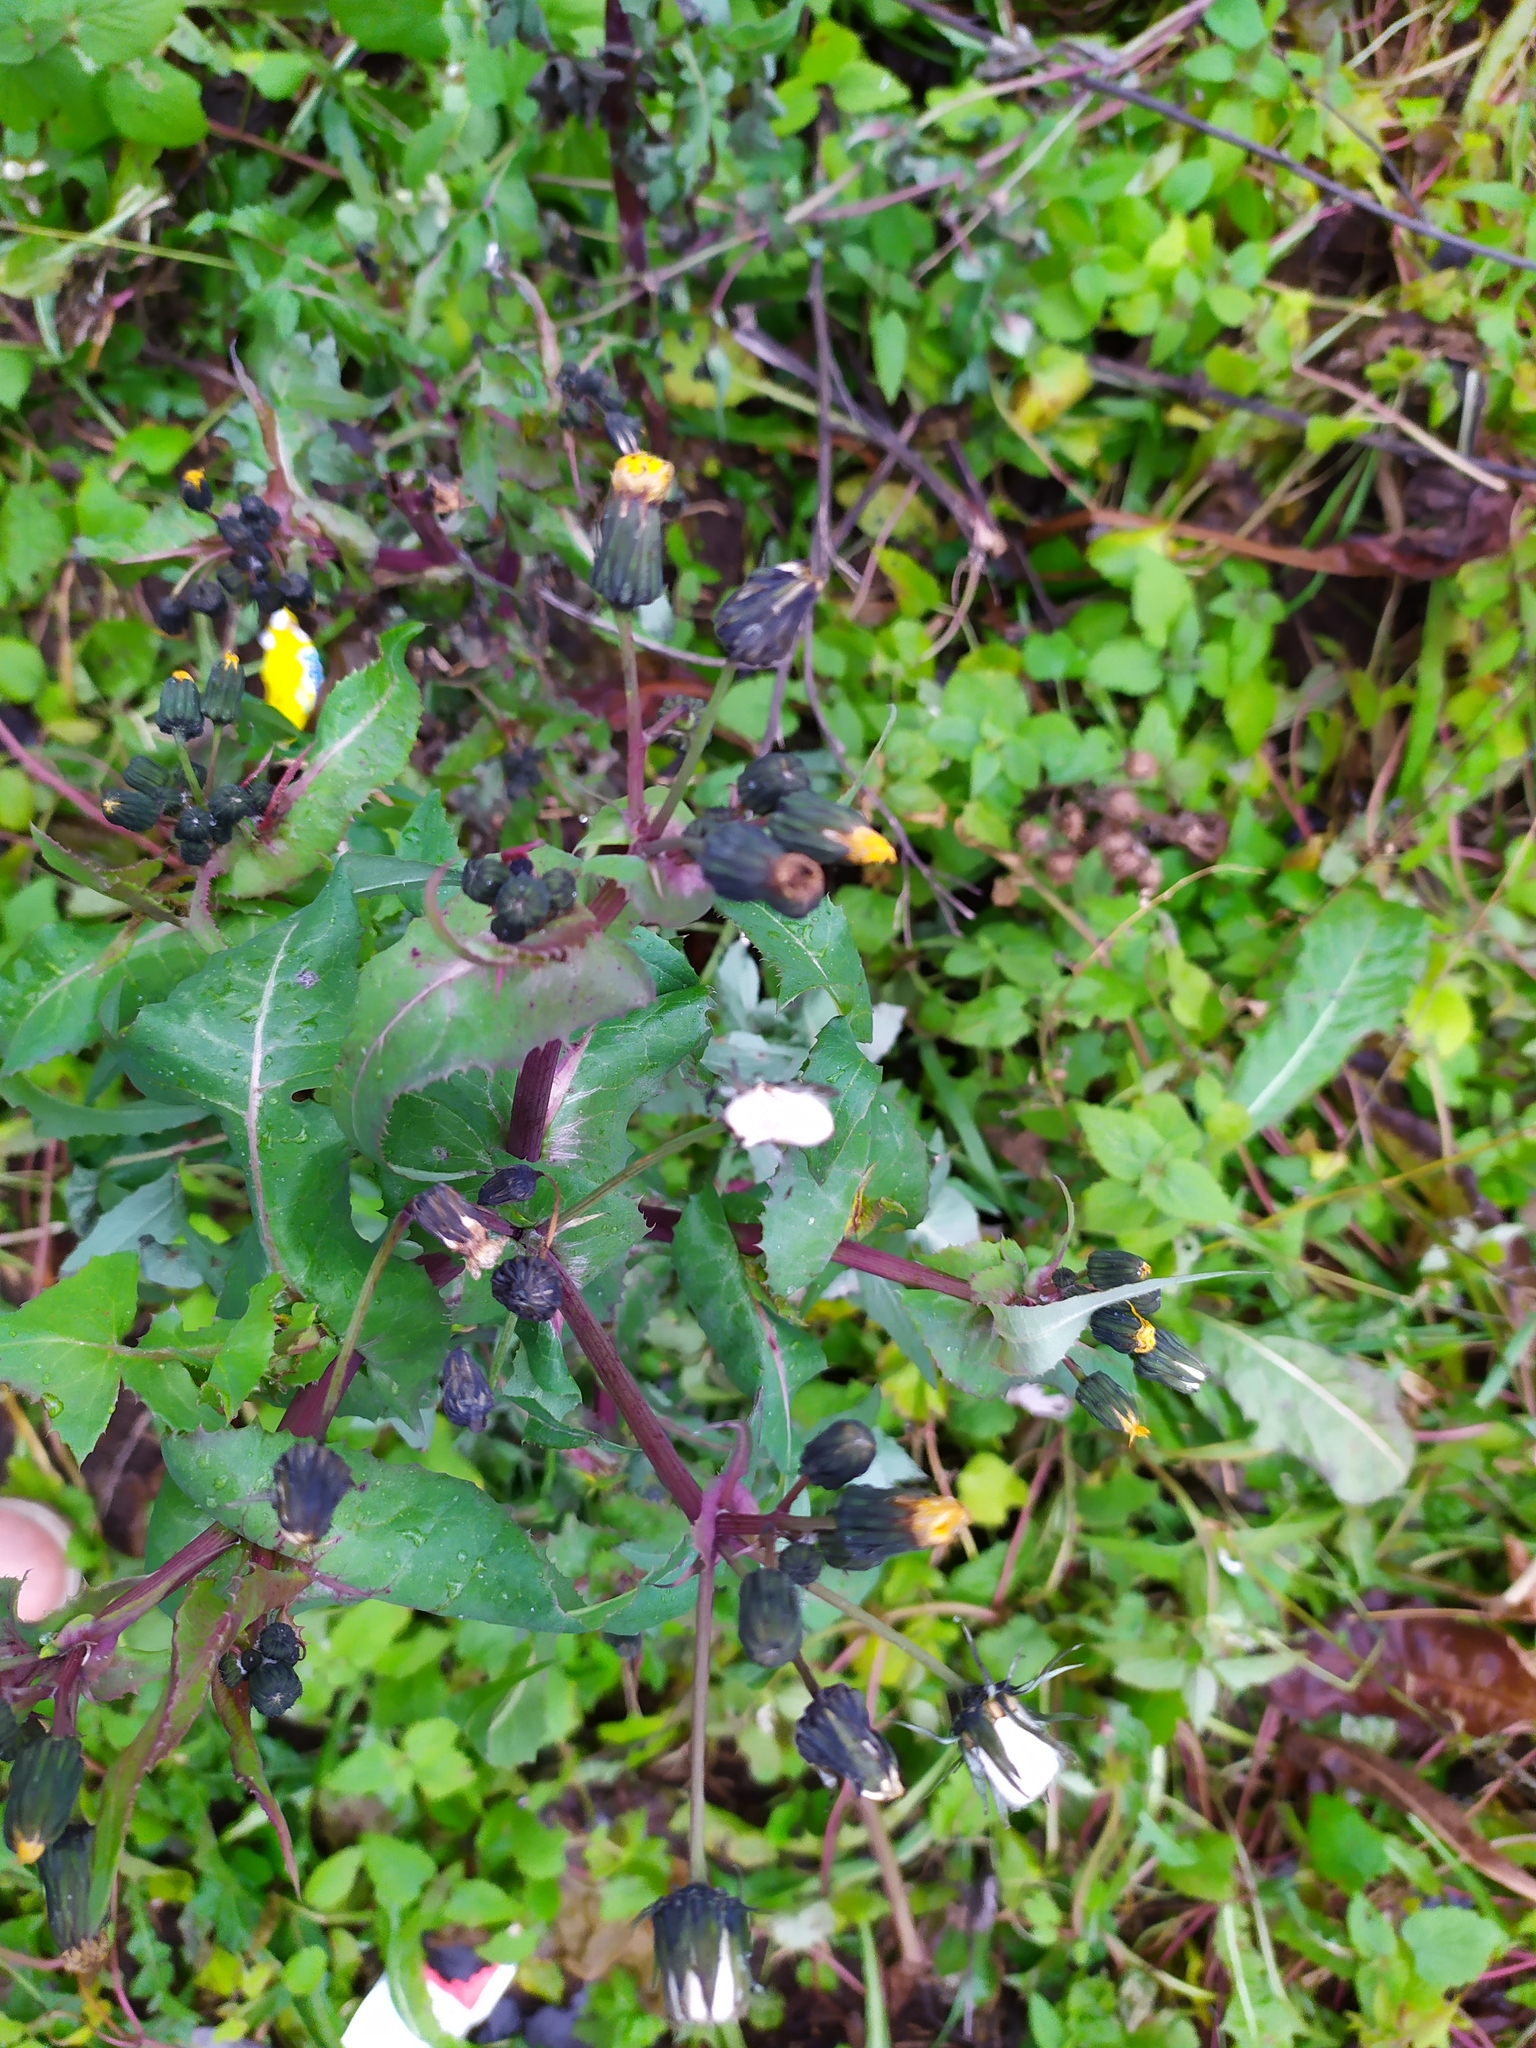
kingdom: Plantae
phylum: Tracheophyta
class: Magnoliopsida
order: Asterales
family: Asteraceae
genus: Sonchus
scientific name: Sonchus oleraceus
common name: Common sowthistle
